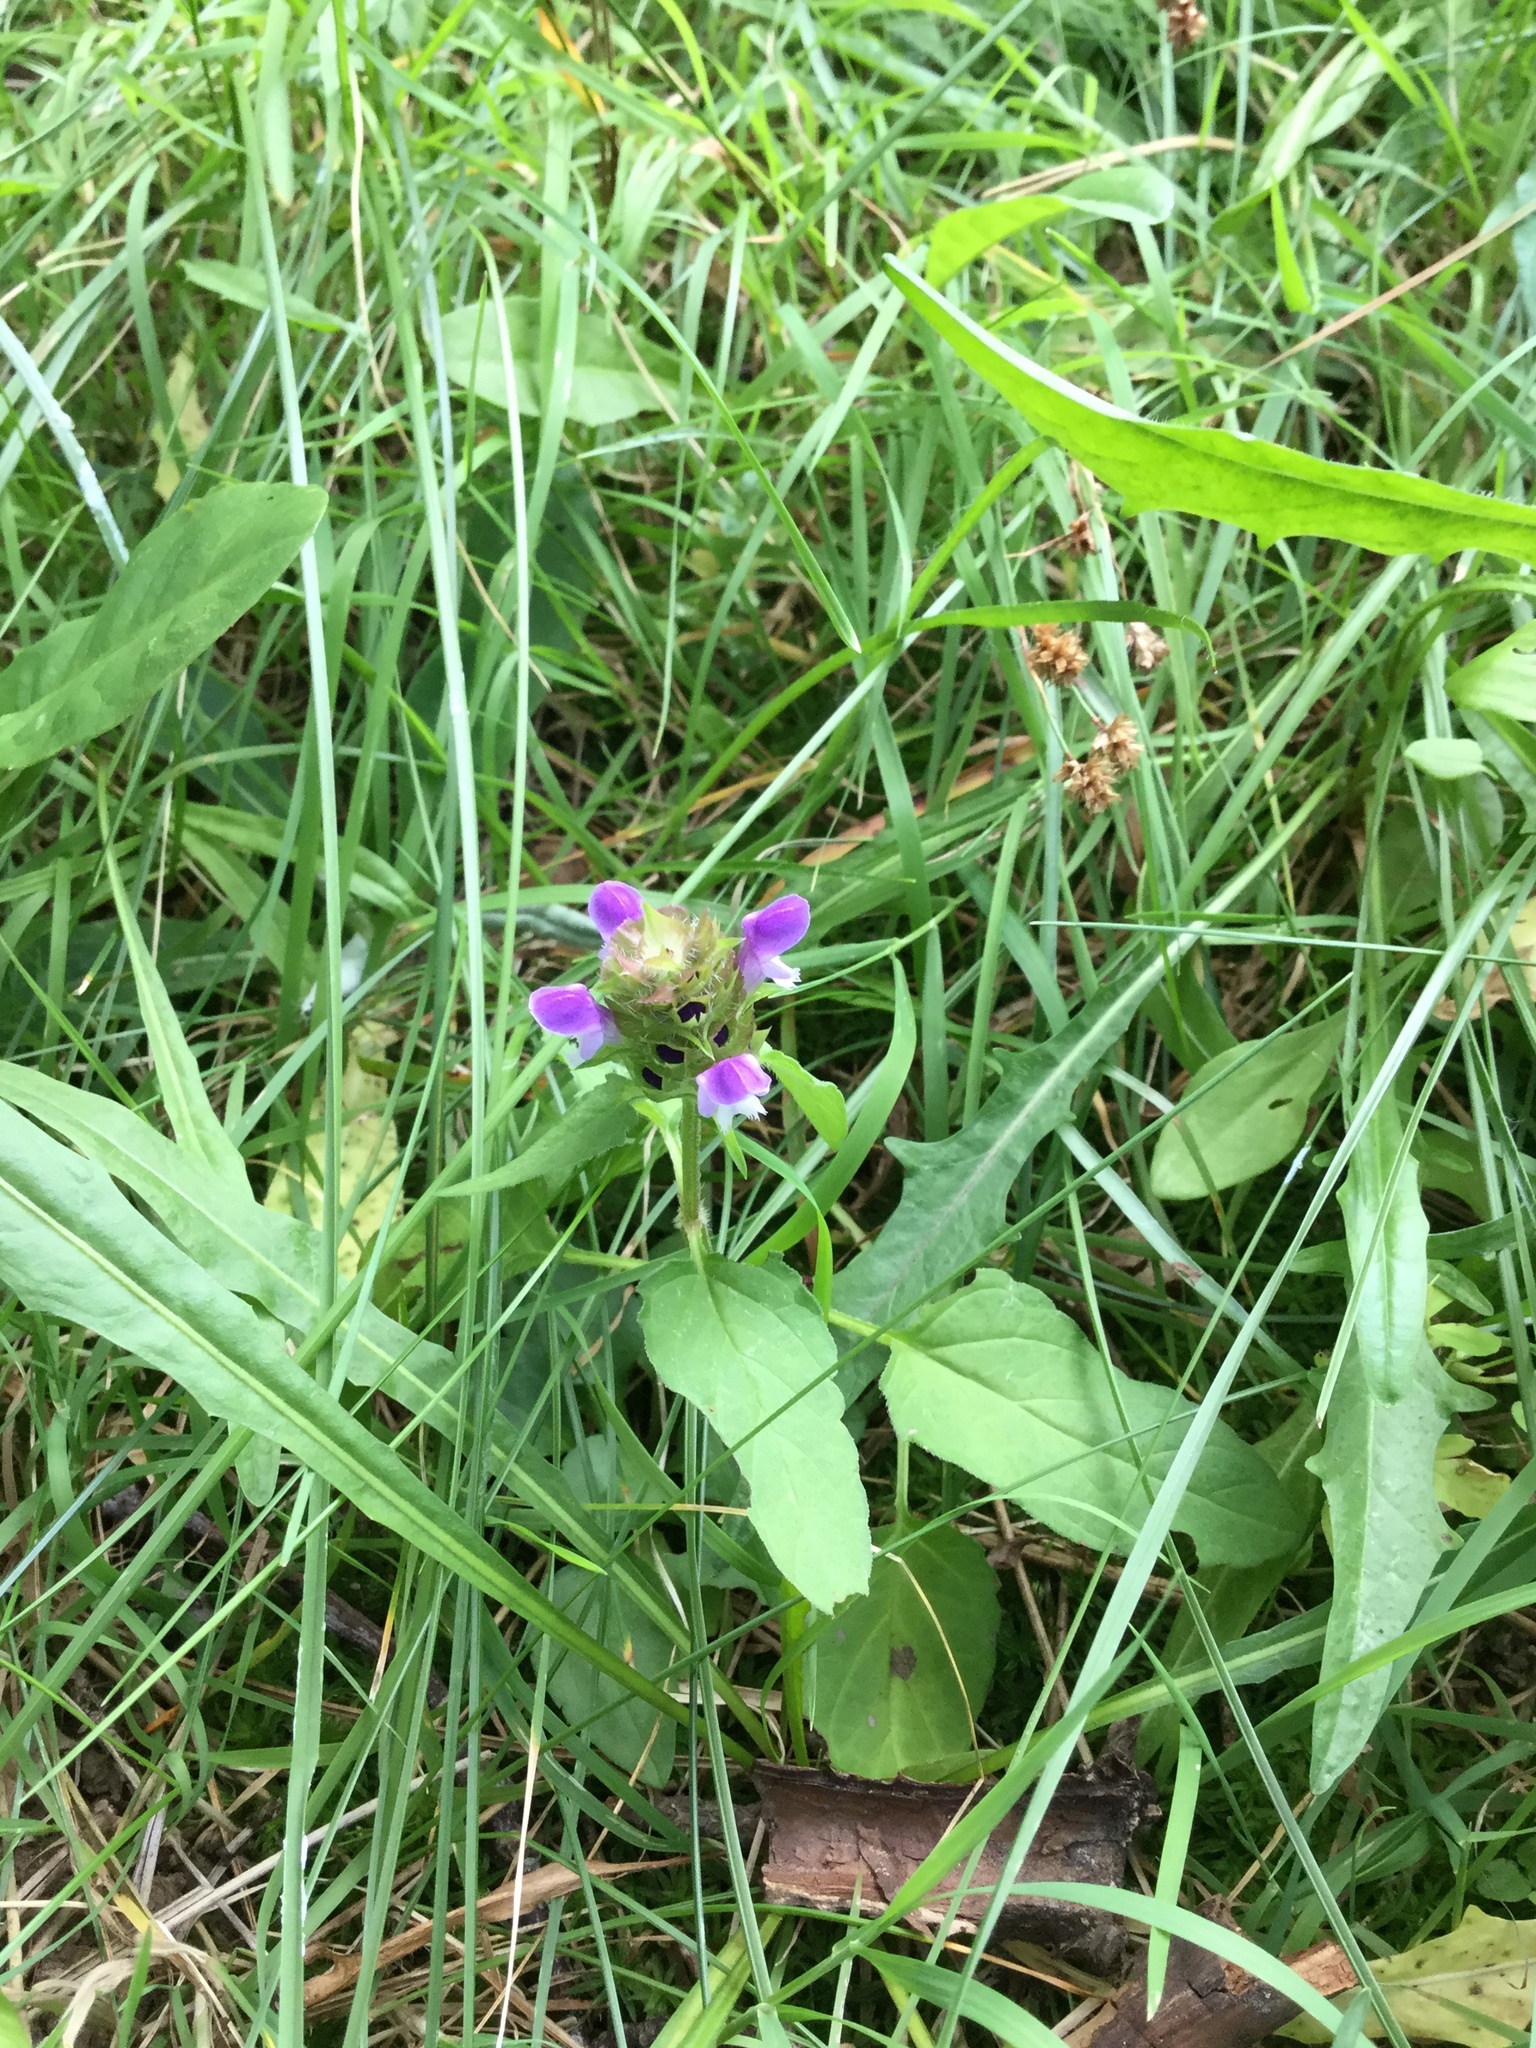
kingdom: Plantae
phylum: Tracheophyta
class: Magnoliopsida
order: Lamiales
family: Lamiaceae
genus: Prunella
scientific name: Prunella vulgaris
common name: Heal-all
